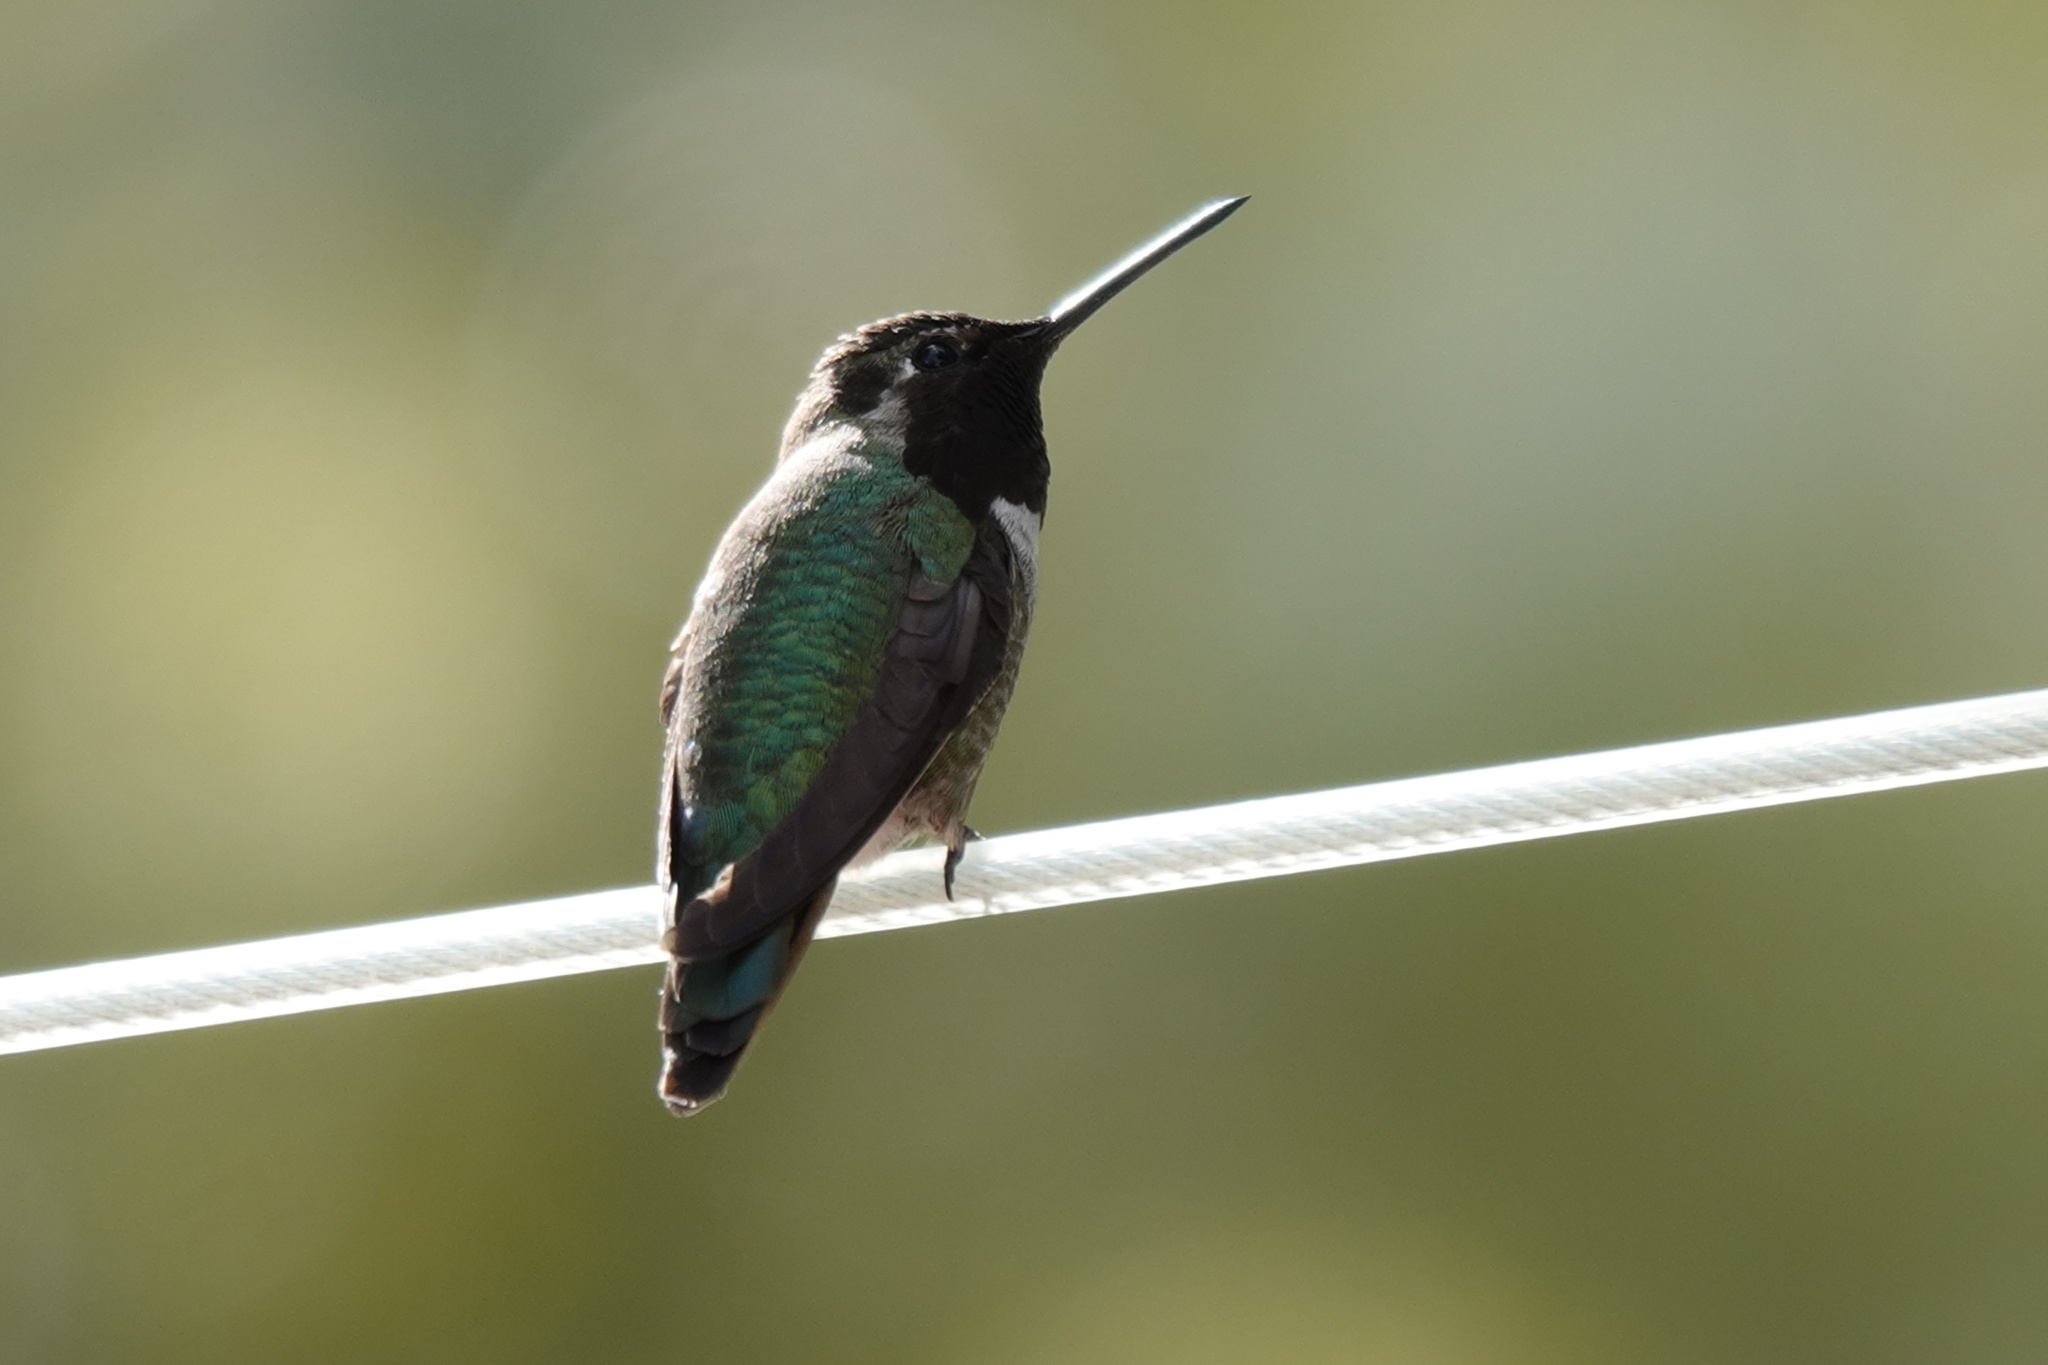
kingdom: Animalia
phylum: Chordata
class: Aves
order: Apodiformes
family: Trochilidae
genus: Calypte
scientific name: Calypte anna
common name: Anna's hummingbird
